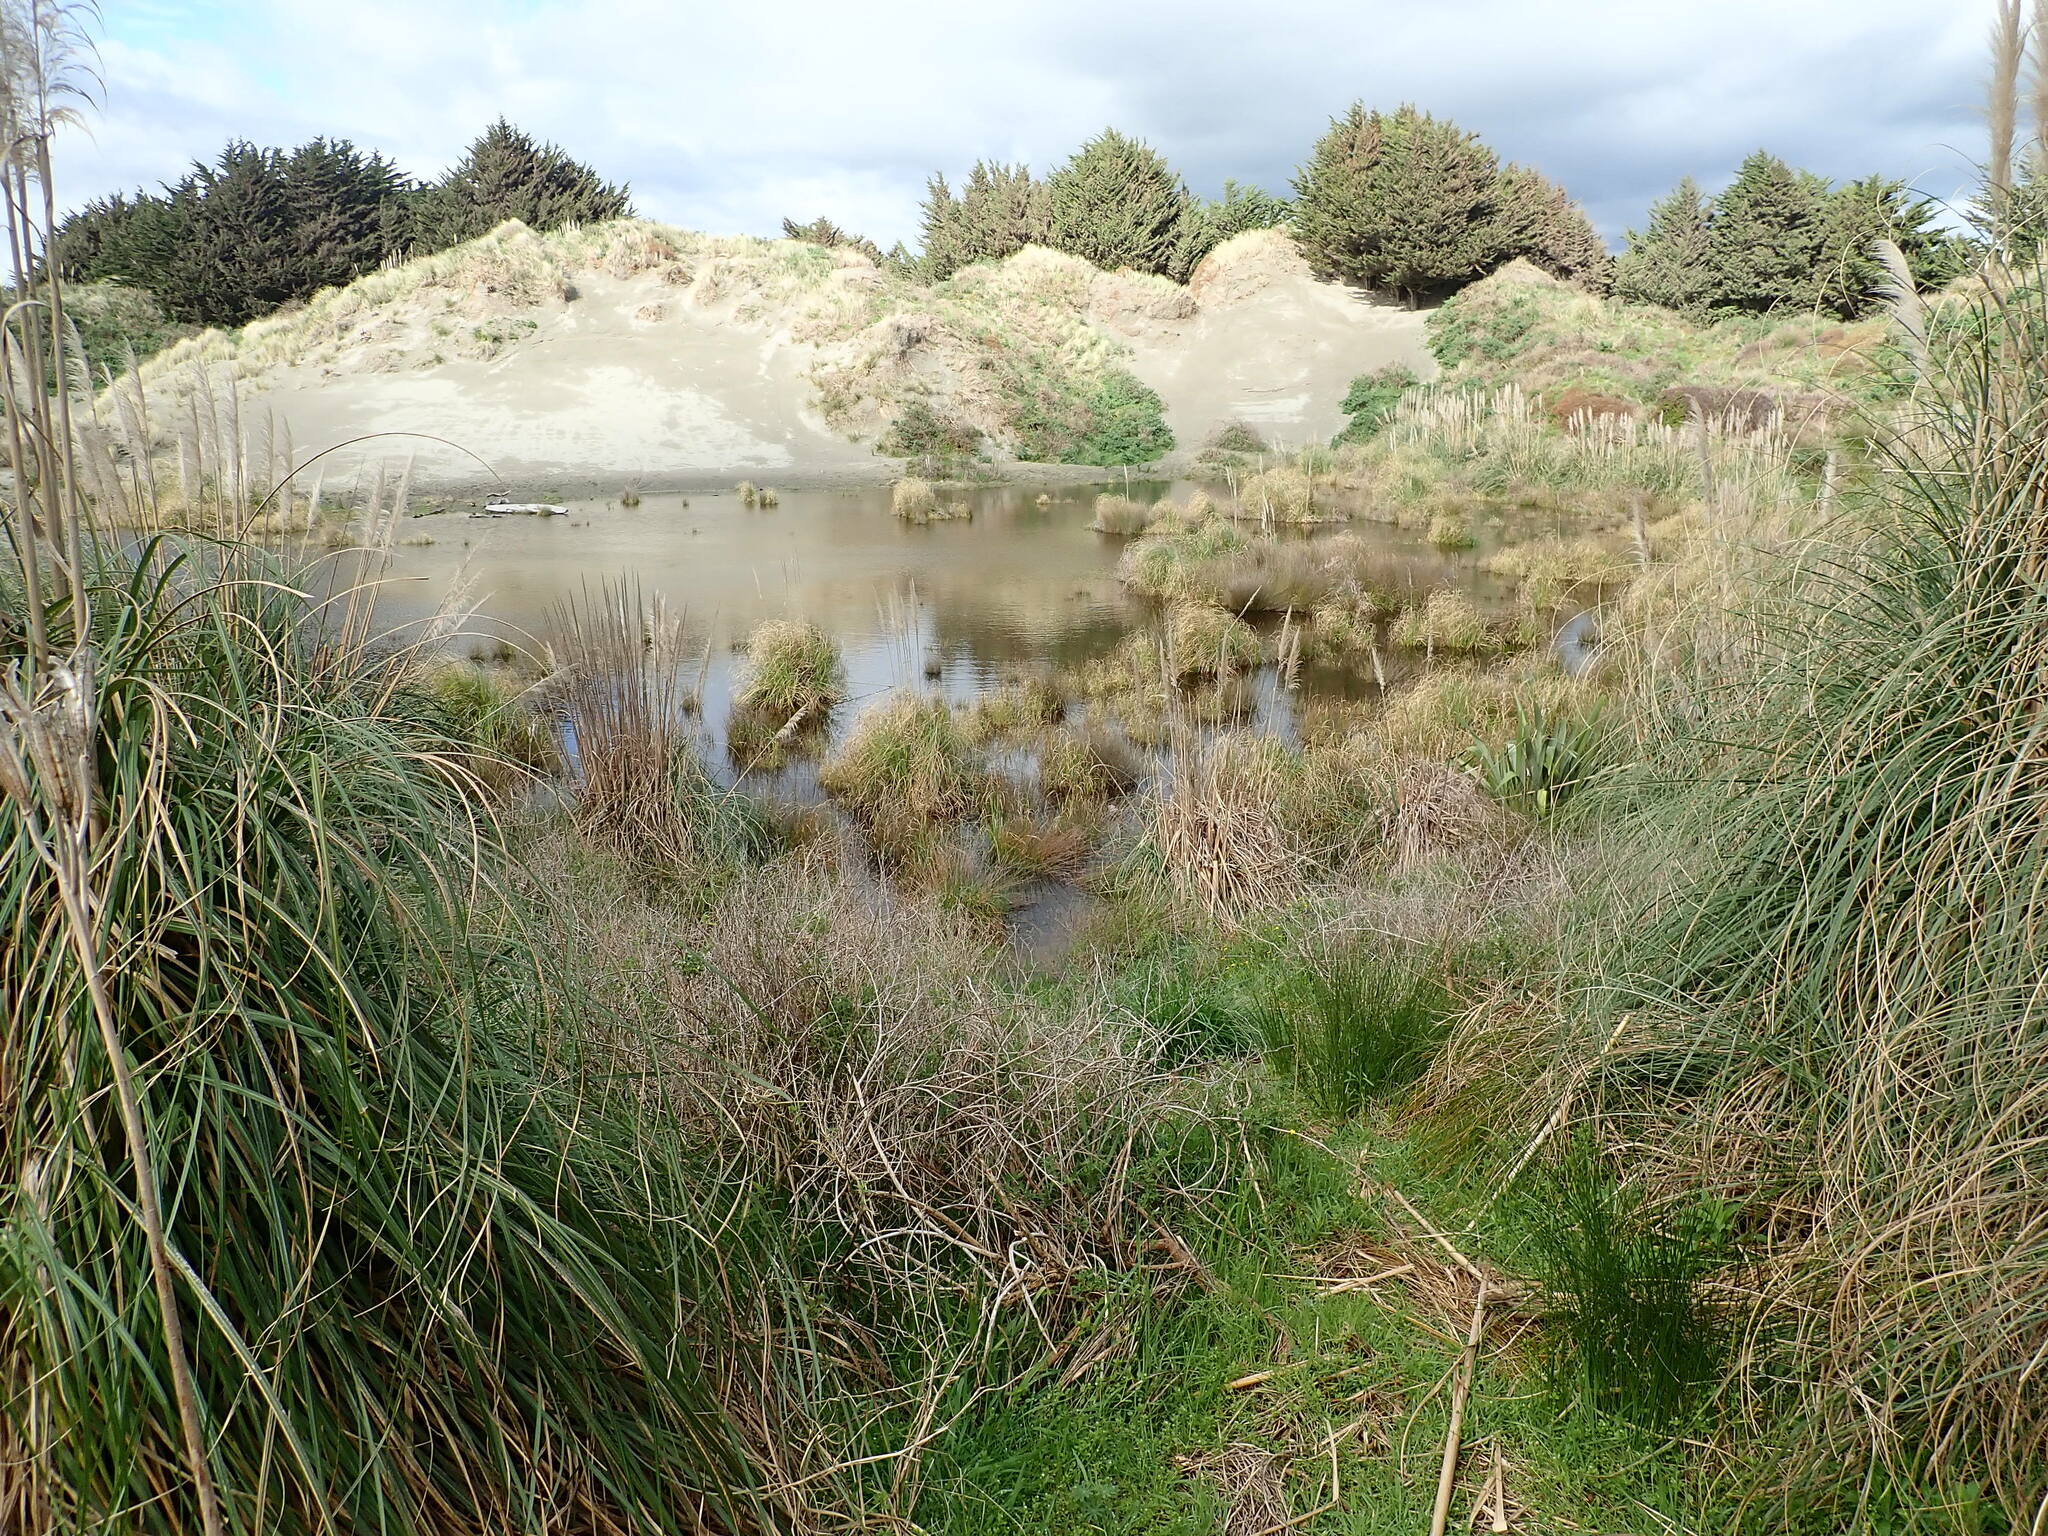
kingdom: Fungi
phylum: Basidiomycota
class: Agaricomycetes
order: Phallales
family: Phallaceae
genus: Ileodictyon
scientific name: Ileodictyon cibarium
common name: Basket fungus
